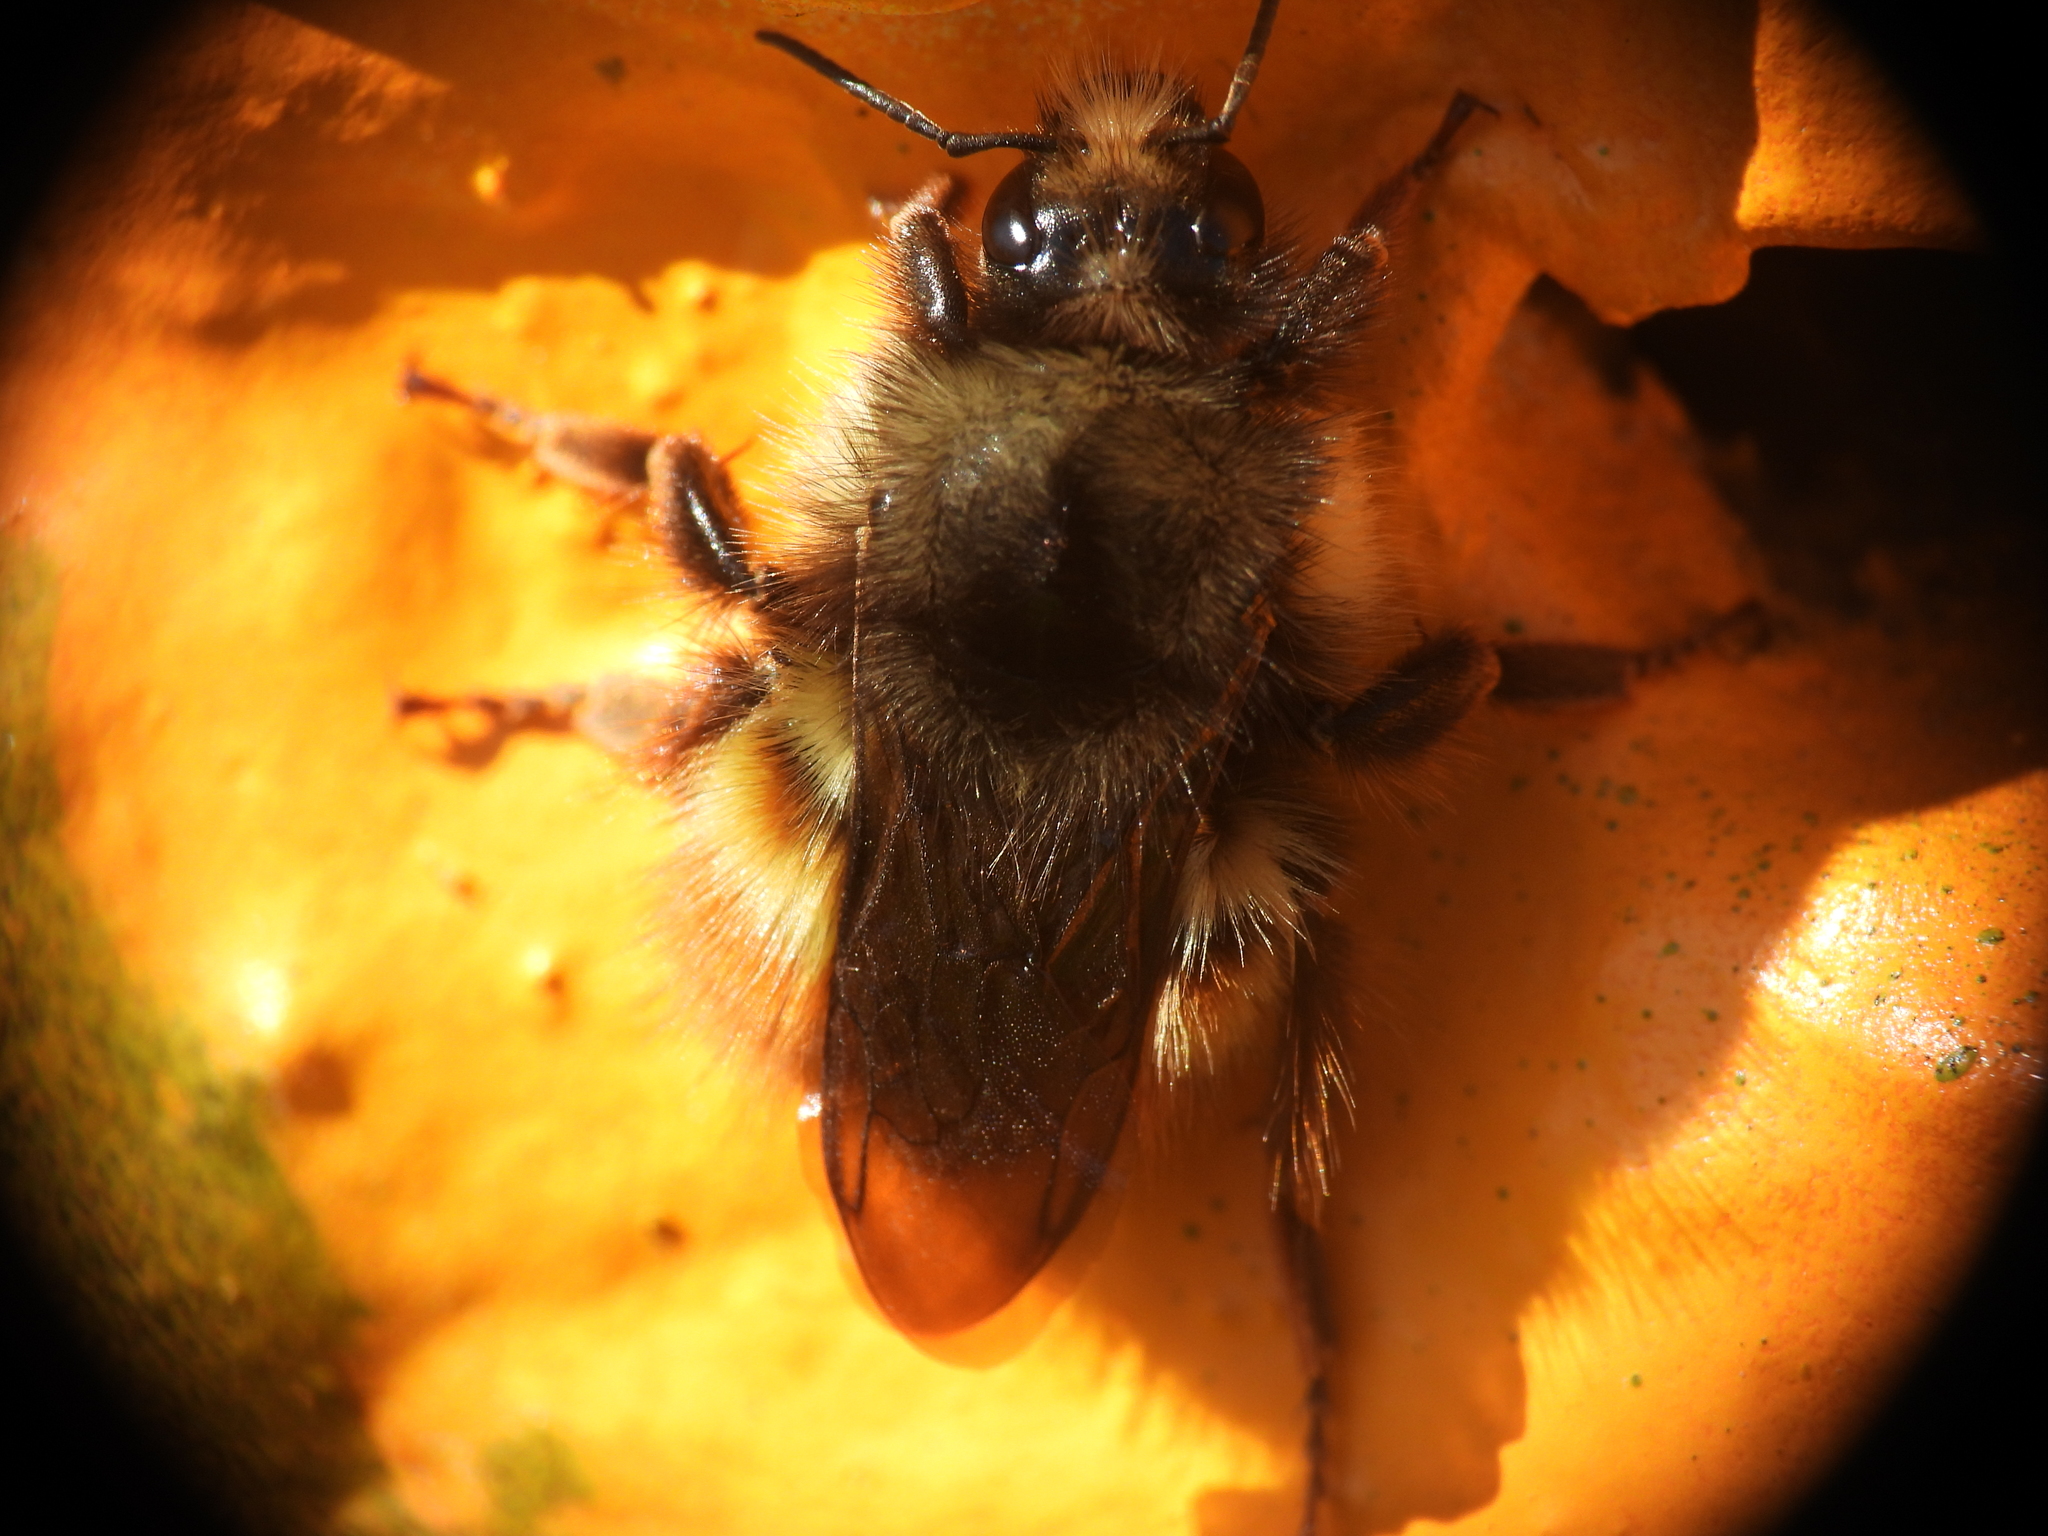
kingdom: Animalia
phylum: Arthropoda
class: Insecta
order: Hymenoptera
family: Apidae
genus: Bombus
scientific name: Bombus flavifrons
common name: Yellow head bumble bee
